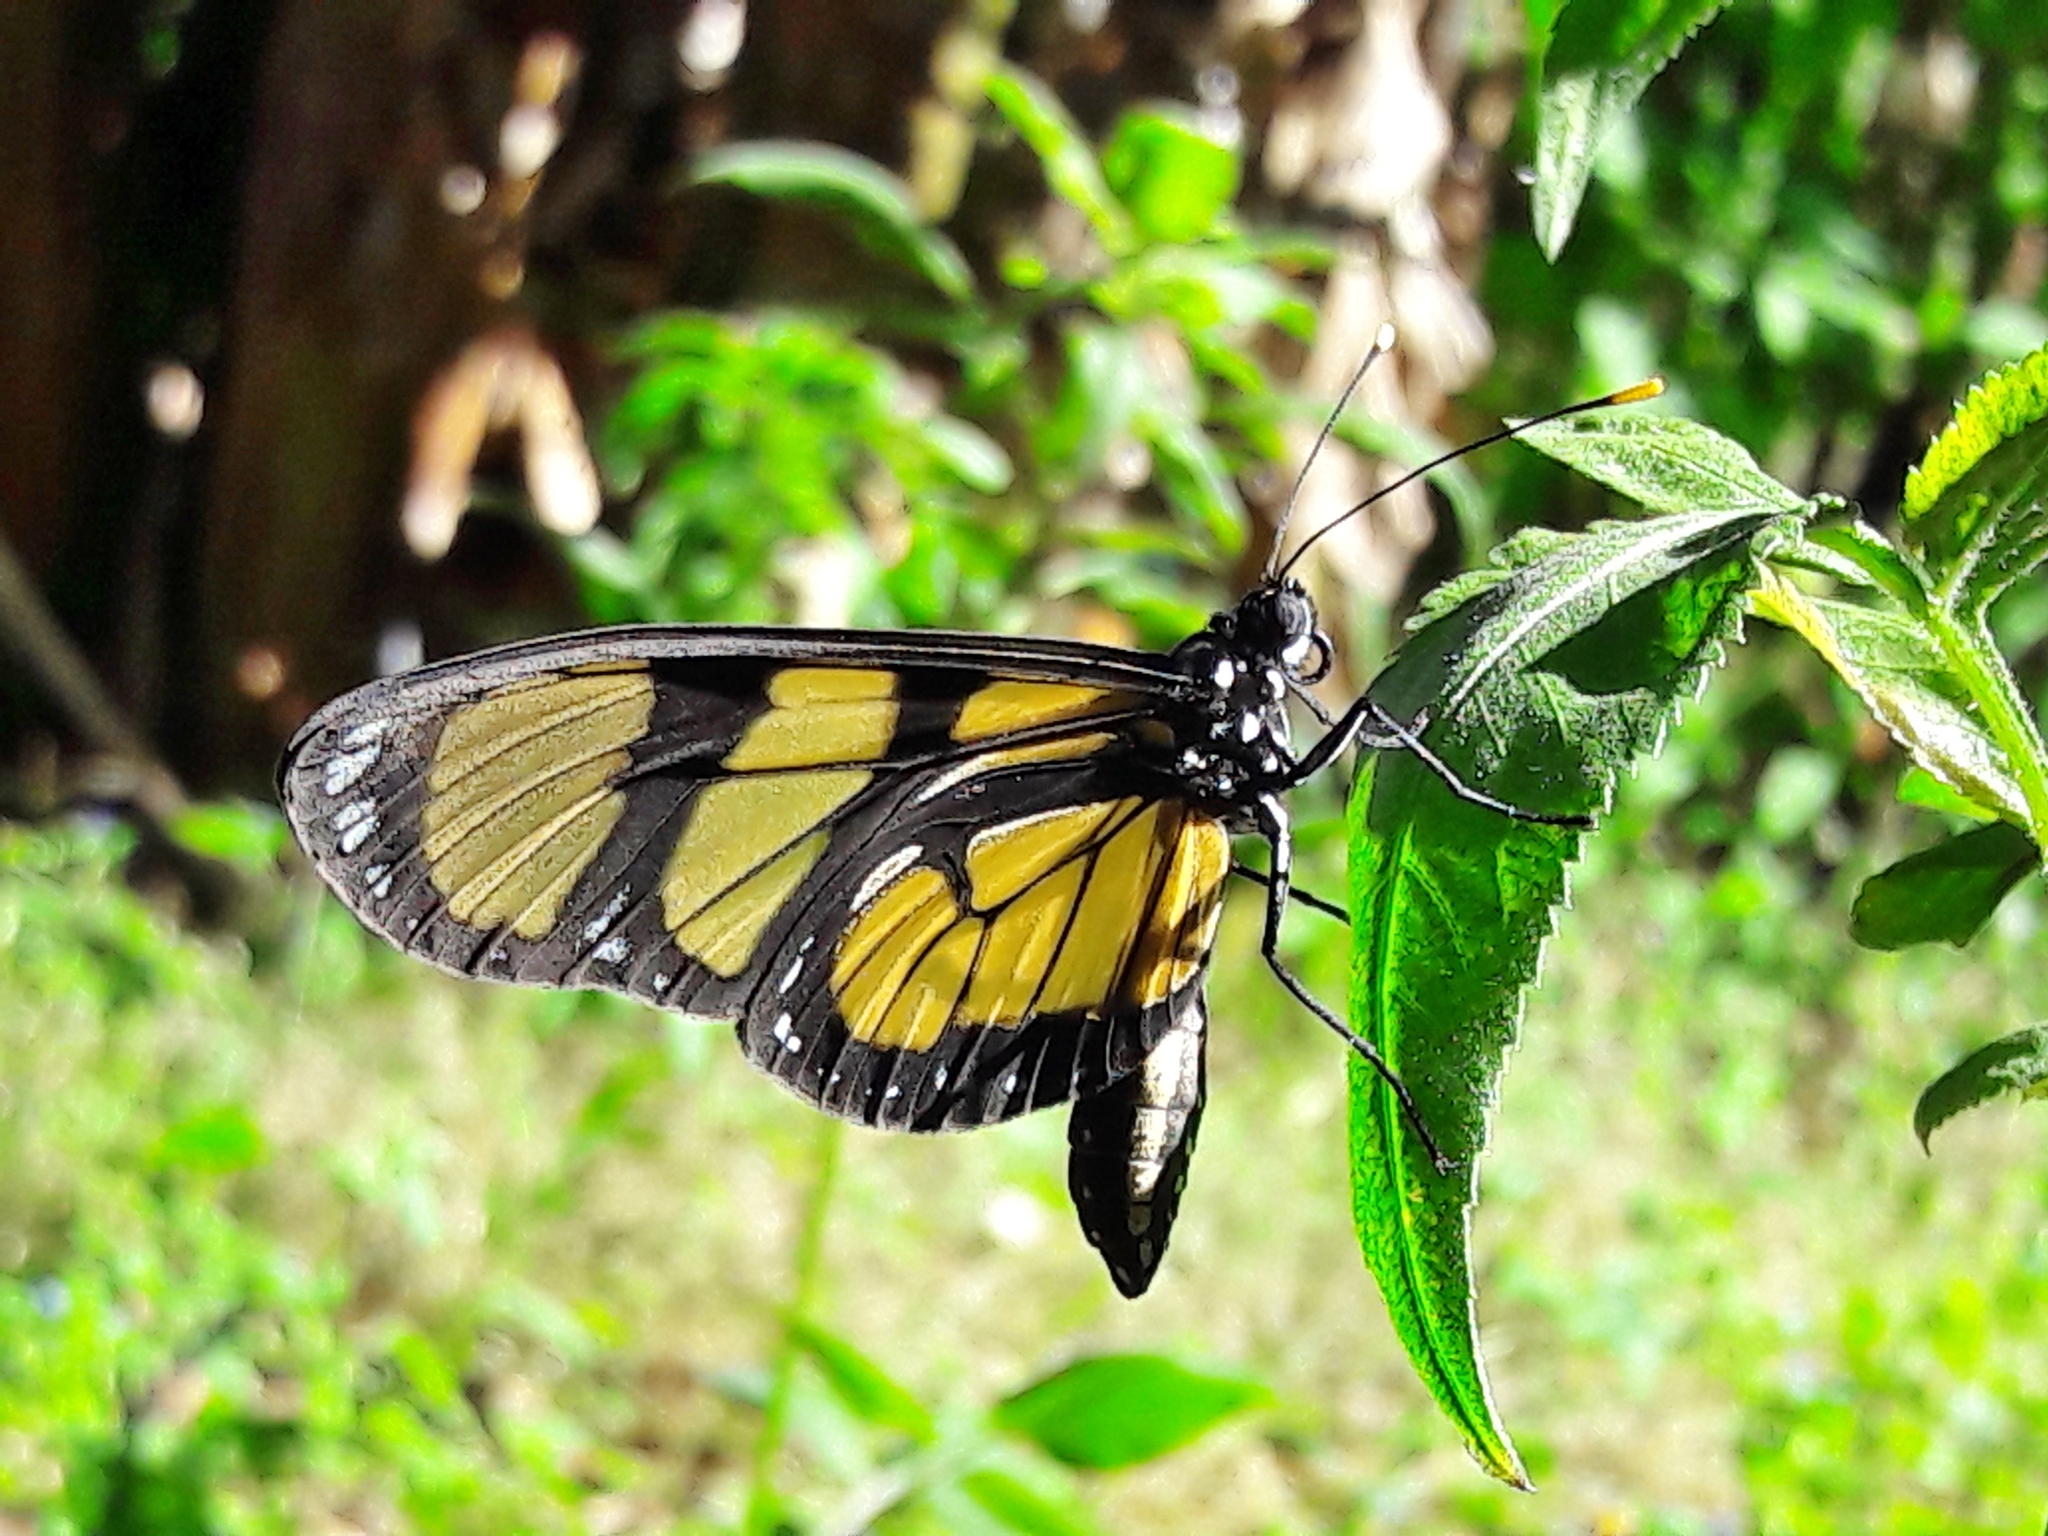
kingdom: Animalia
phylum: Arthropoda
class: Insecta
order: Lepidoptera
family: Nymphalidae
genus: Methona
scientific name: Methona themisto
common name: Themisto amberwing
